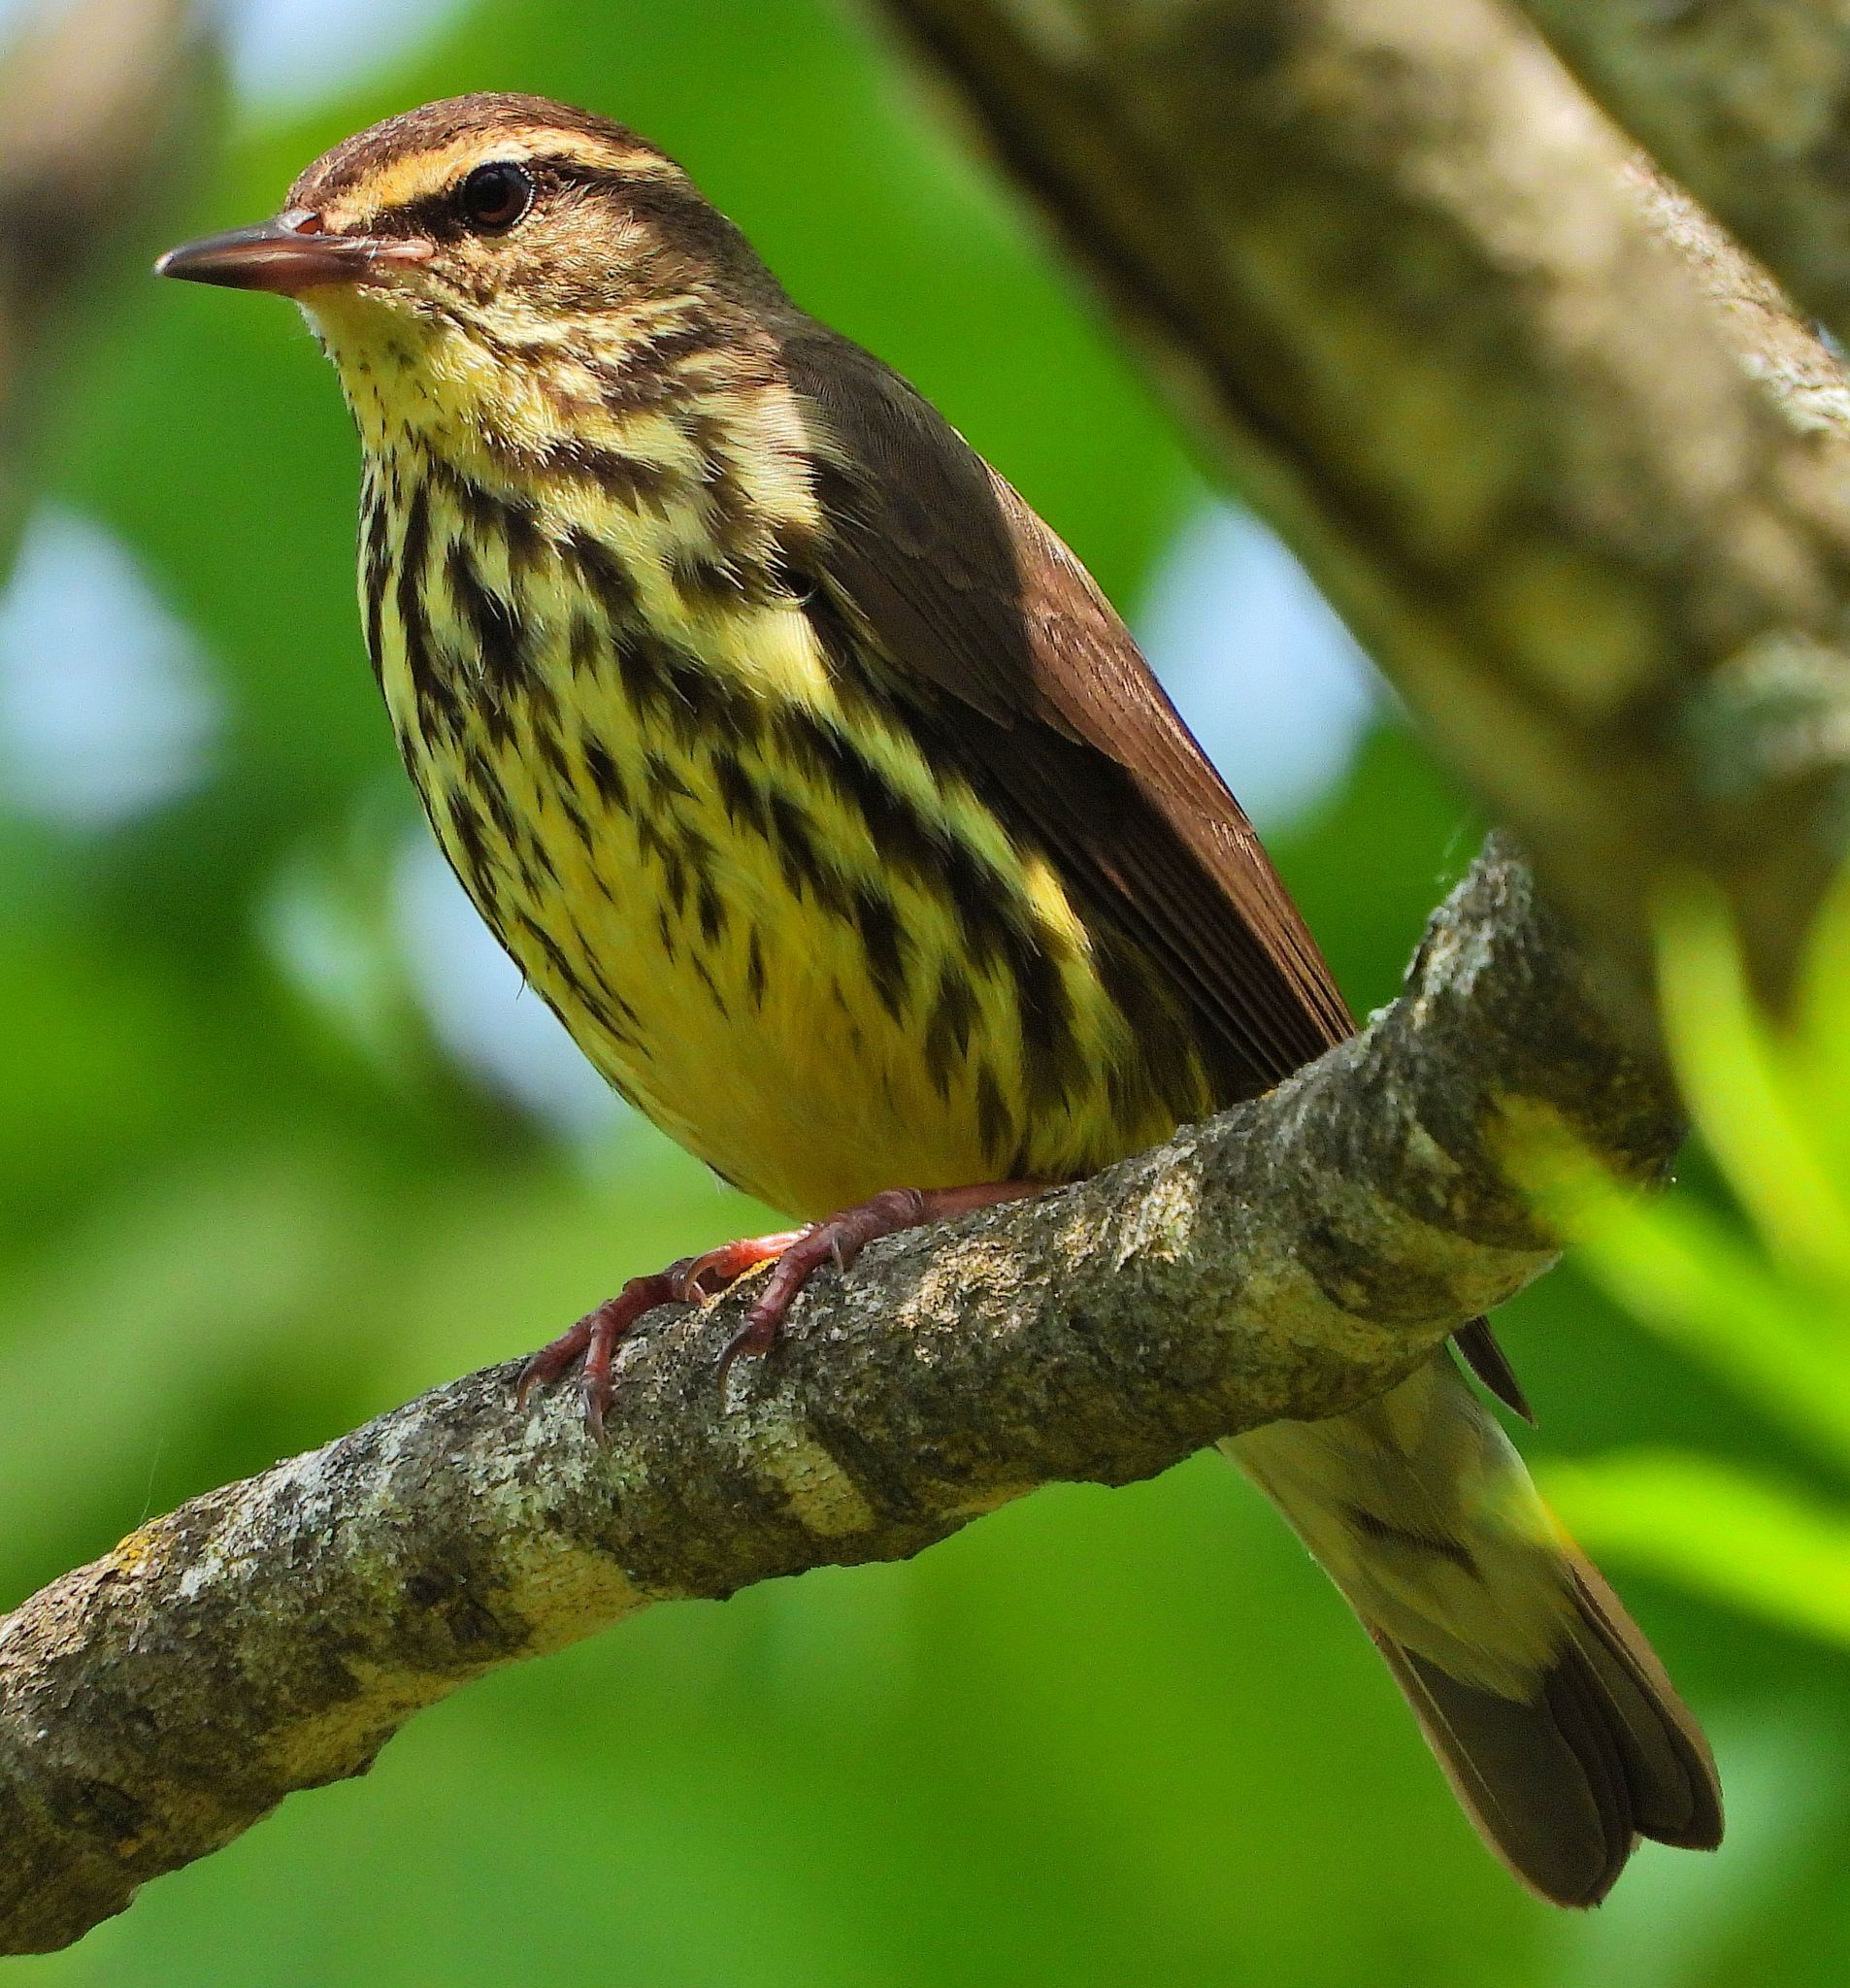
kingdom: Animalia
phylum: Chordata
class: Aves
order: Passeriformes
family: Parulidae
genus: Parkesia
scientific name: Parkesia noveboracensis
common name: Northern waterthrush
